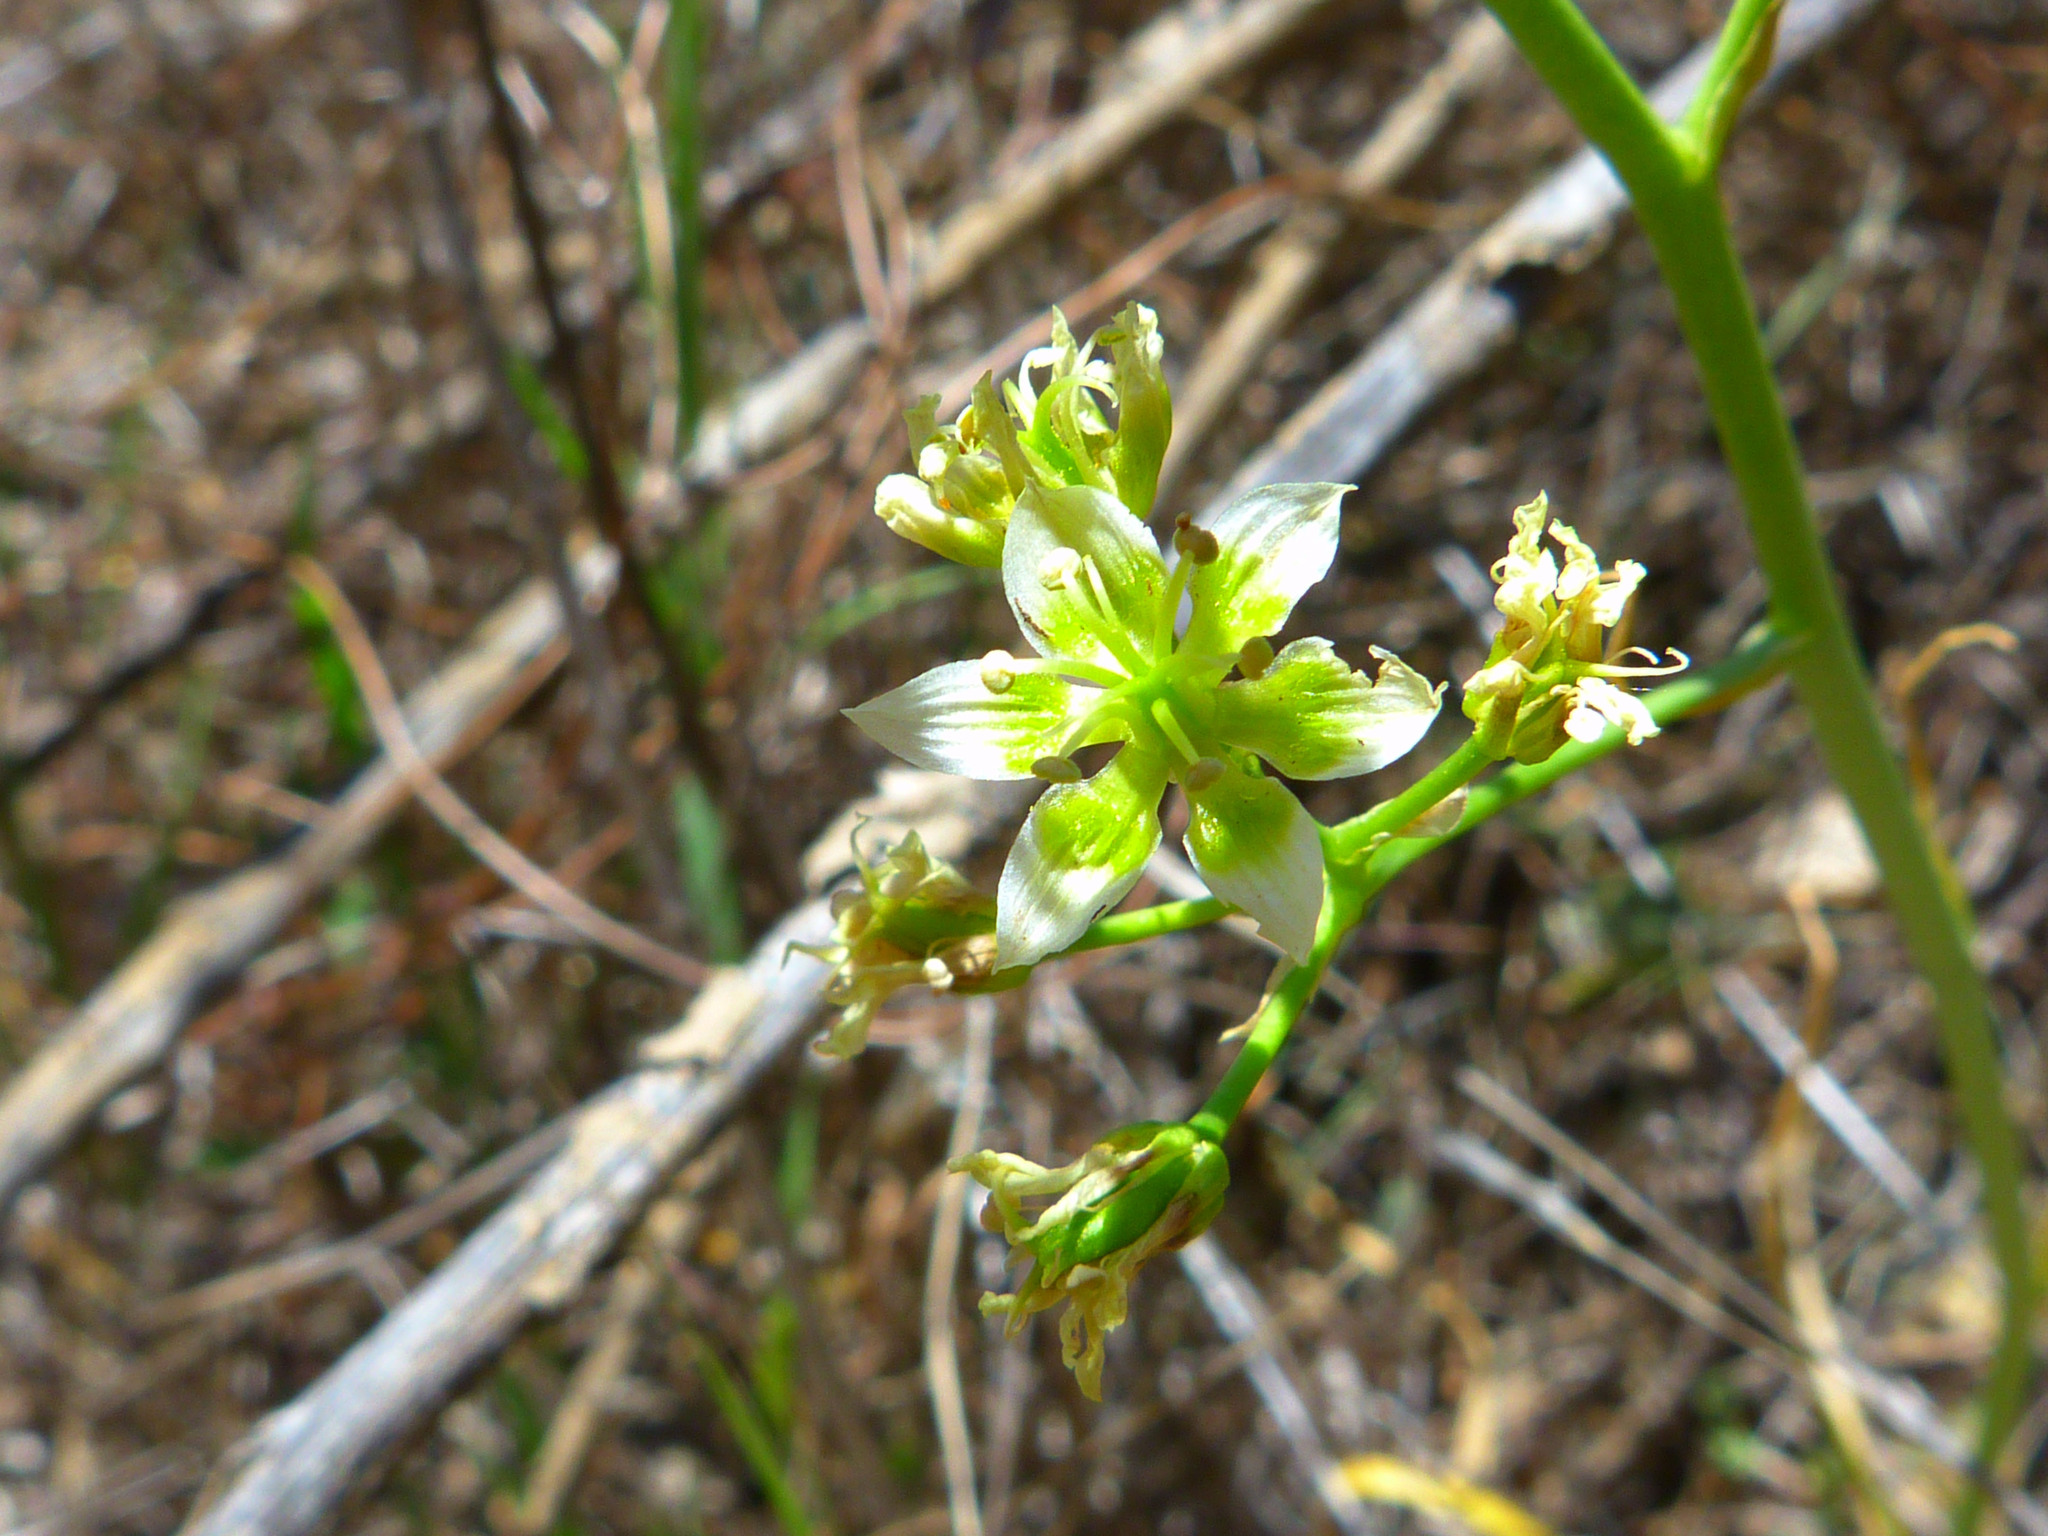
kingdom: Plantae
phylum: Tracheophyta
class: Liliopsida
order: Liliales
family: Melanthiaceae
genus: Toxicoscordion
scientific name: Toxicoscordion fremontii
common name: Fremont's death camas
